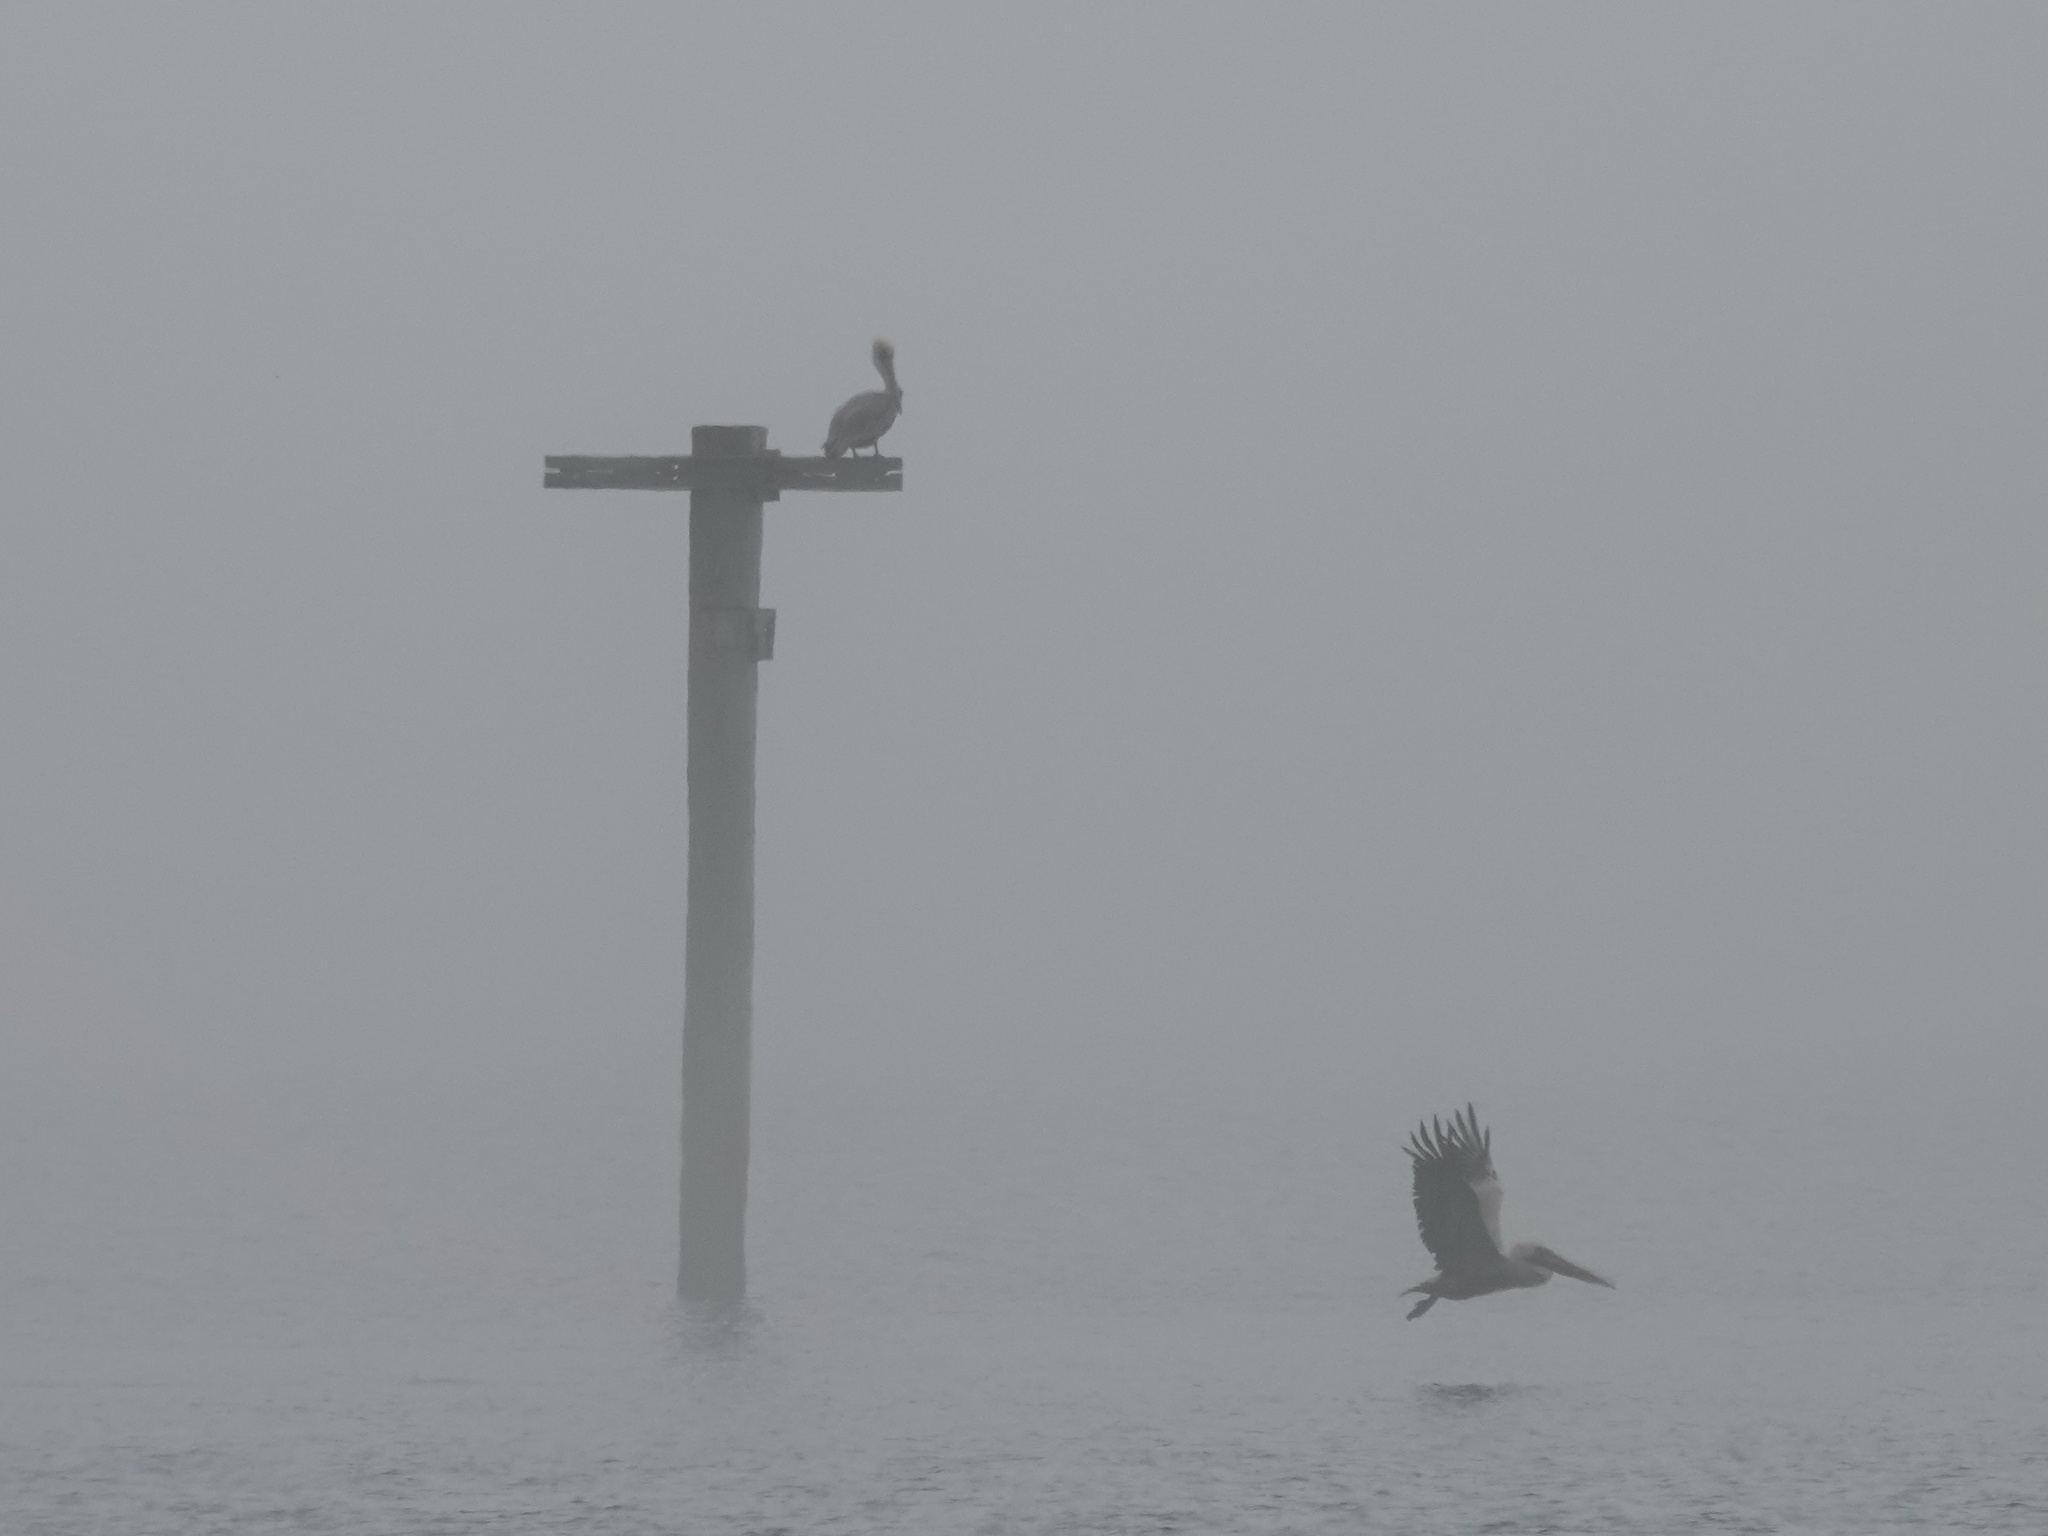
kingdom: Animalia
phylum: Chordata
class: Aves
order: Pelecaniformes
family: Pelecanidae
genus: Pelecanus
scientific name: Pelecanus occidentalis
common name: Brown pelican
